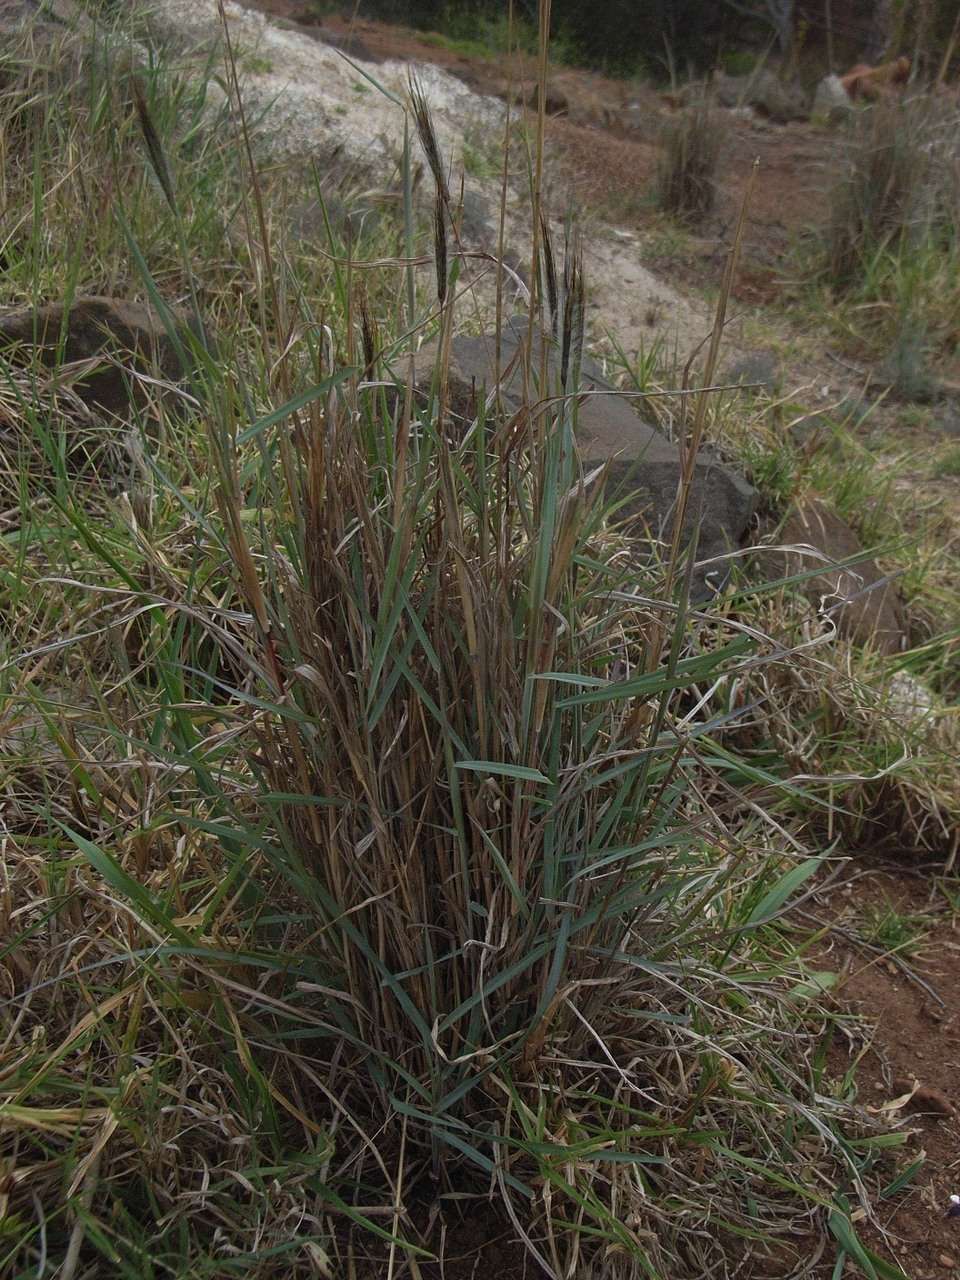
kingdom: Plantae
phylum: Tracheophyta
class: Liliopsida
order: Poales
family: Poaceae
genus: Dichanthium
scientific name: Dichanthium sericeum
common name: Silky bluestem
